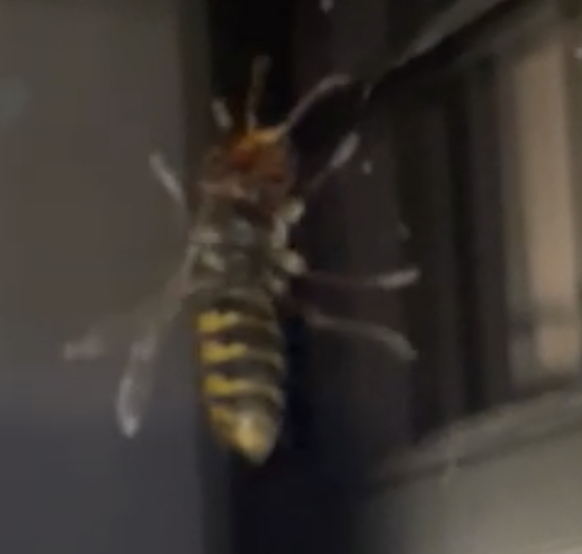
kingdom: Animalia
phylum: Arthropoda
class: Insecta
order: Hymenoptera
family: Vespidae
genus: Vespa
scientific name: Vespa crabro
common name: Hornet
